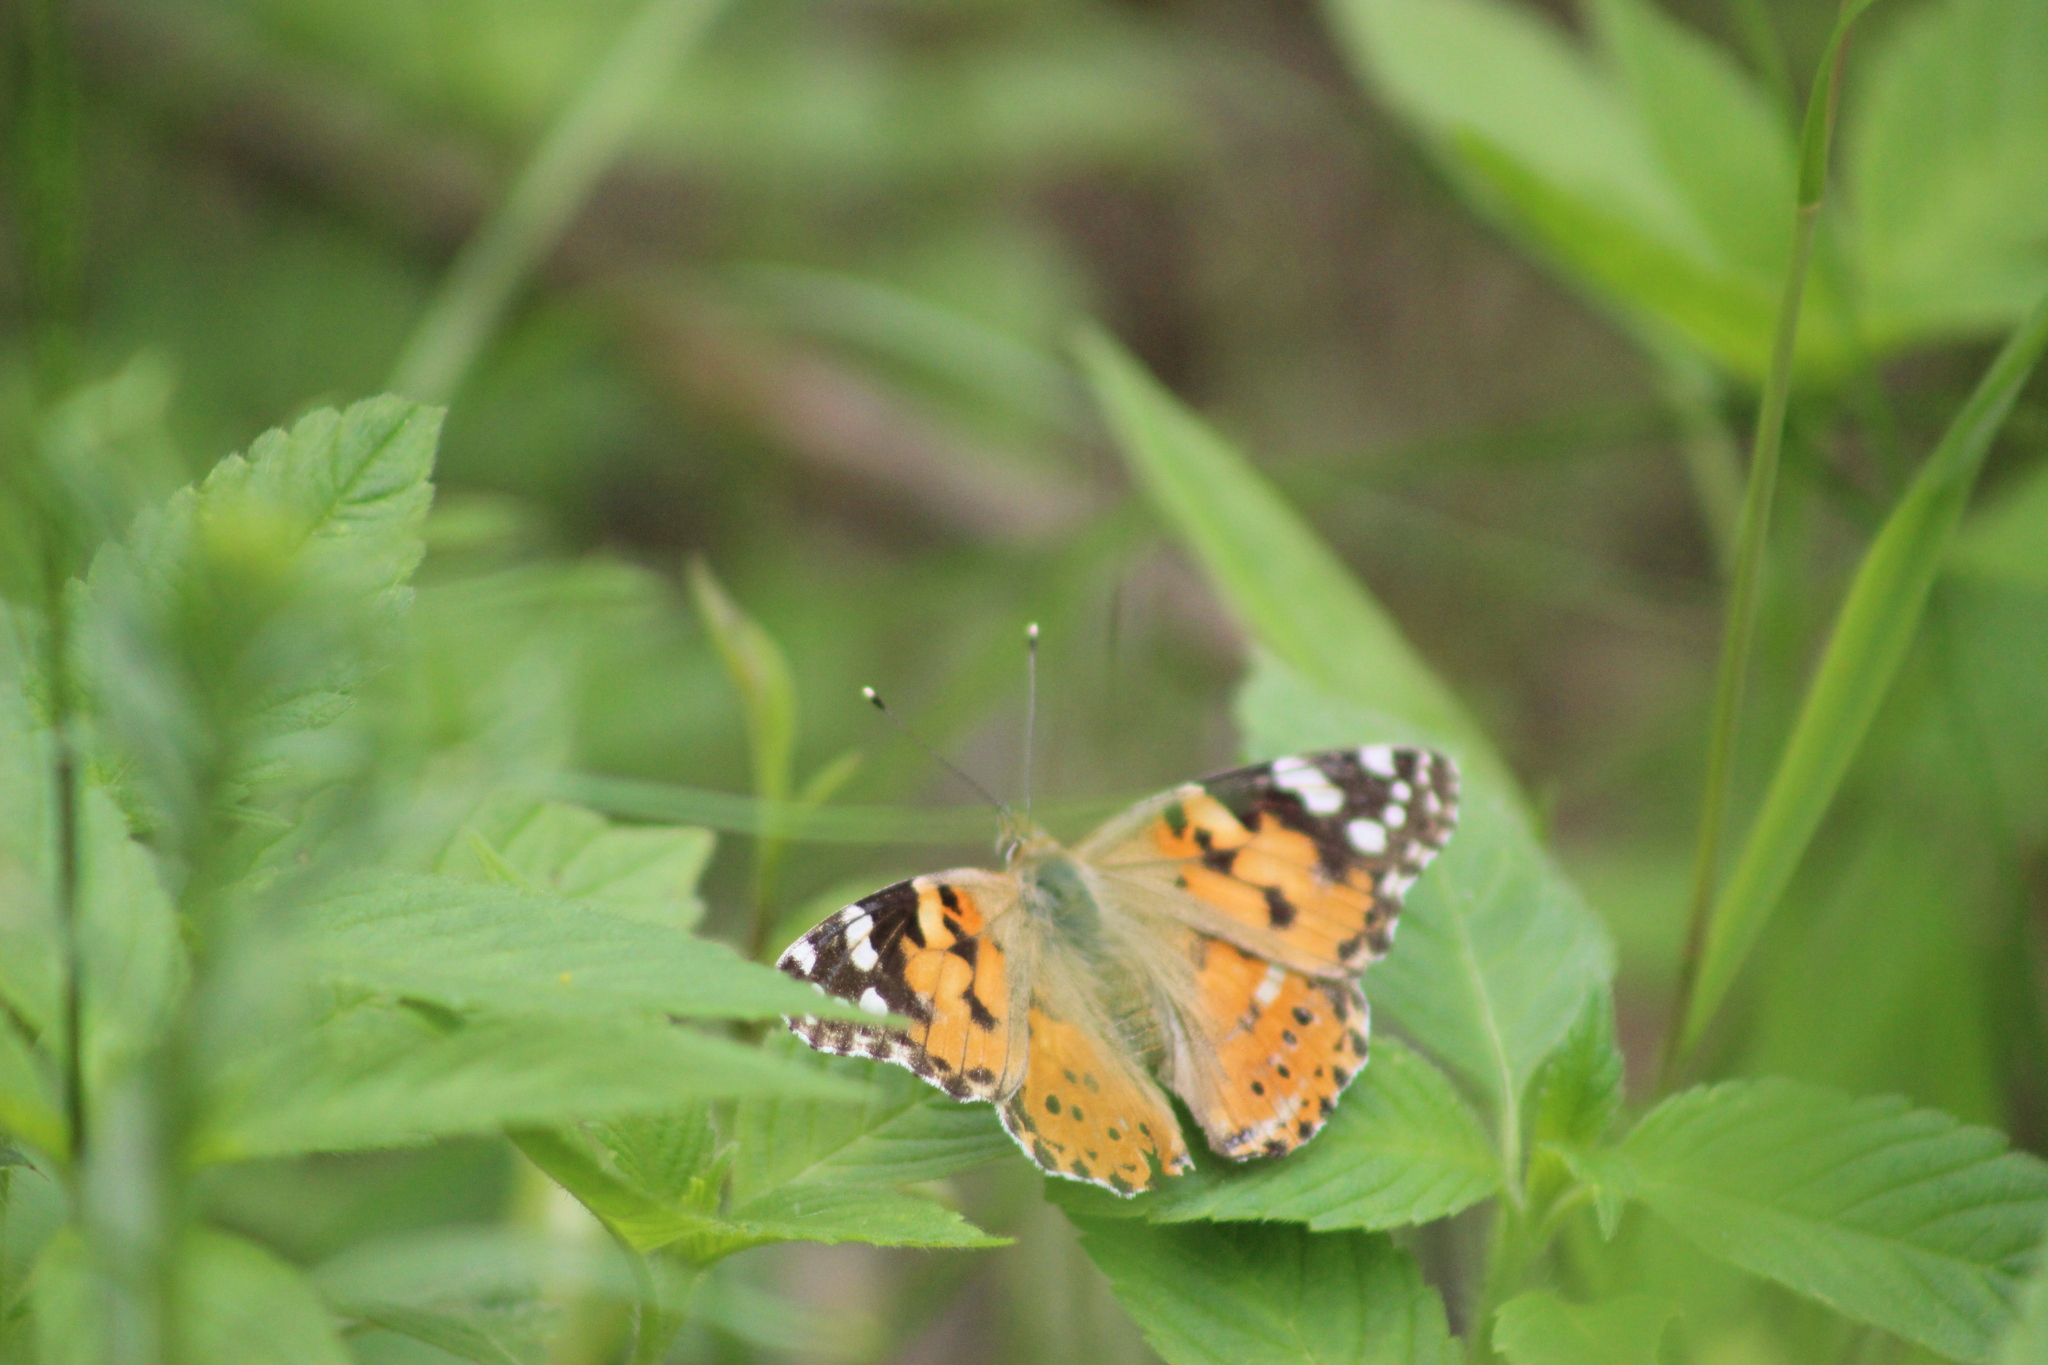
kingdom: Animalia
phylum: Arthropoda
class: Insecta
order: Lepidoptera
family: Nymphalidae
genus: Vanessa
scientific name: Vanessa cardui
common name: Painted lady
